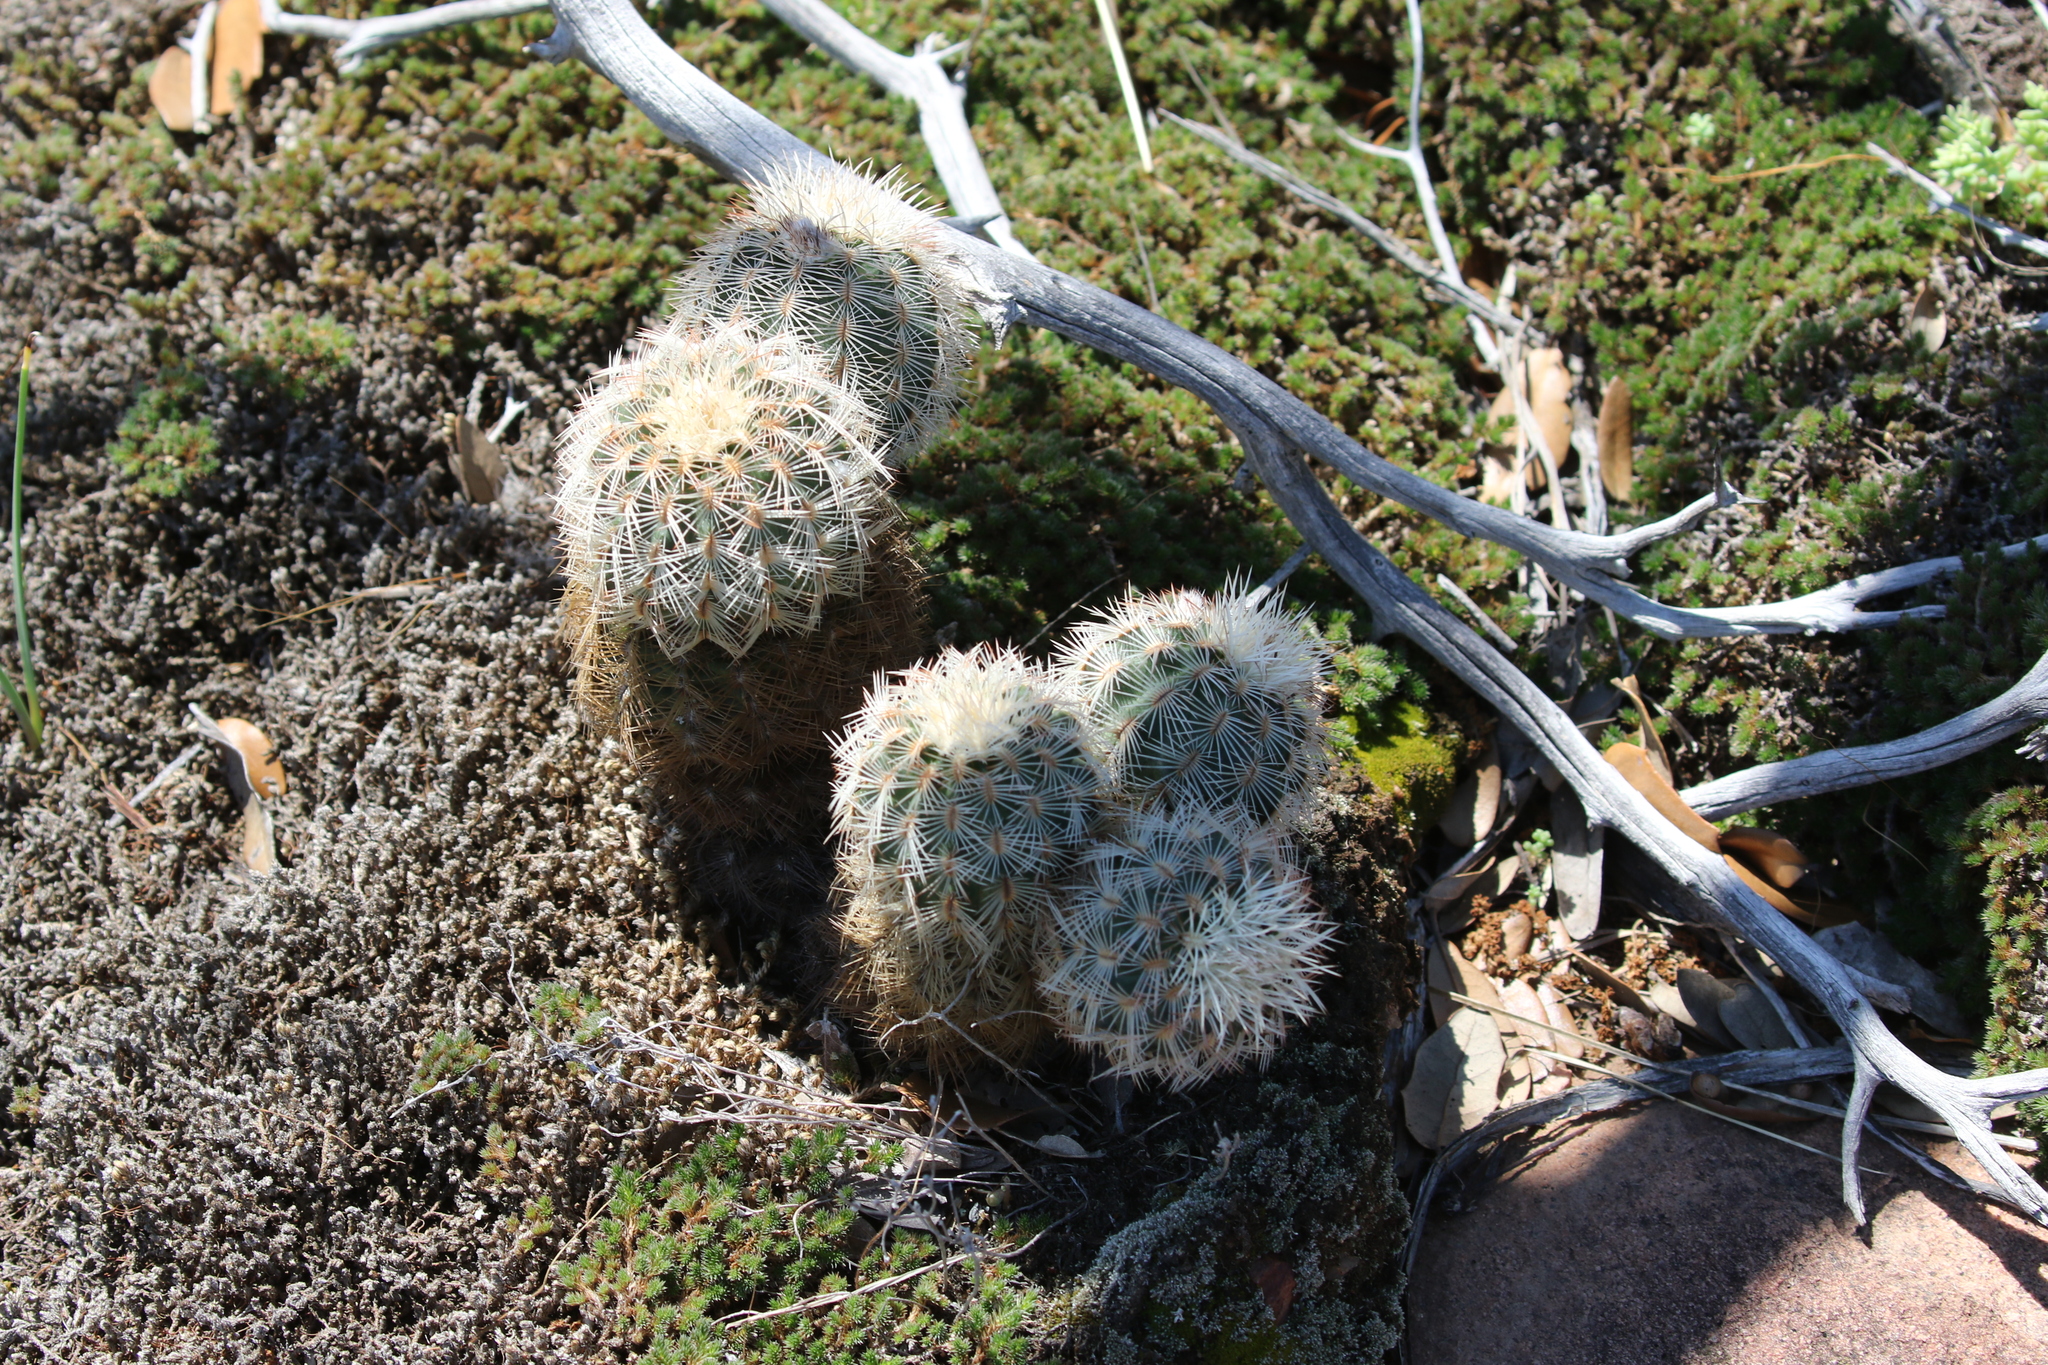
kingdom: Plantae
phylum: Tracheophyta
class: Magnoliopsida
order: Caryophyllales
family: Cactaceae
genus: Echinocereus
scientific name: Echinocereus reichenbachii
